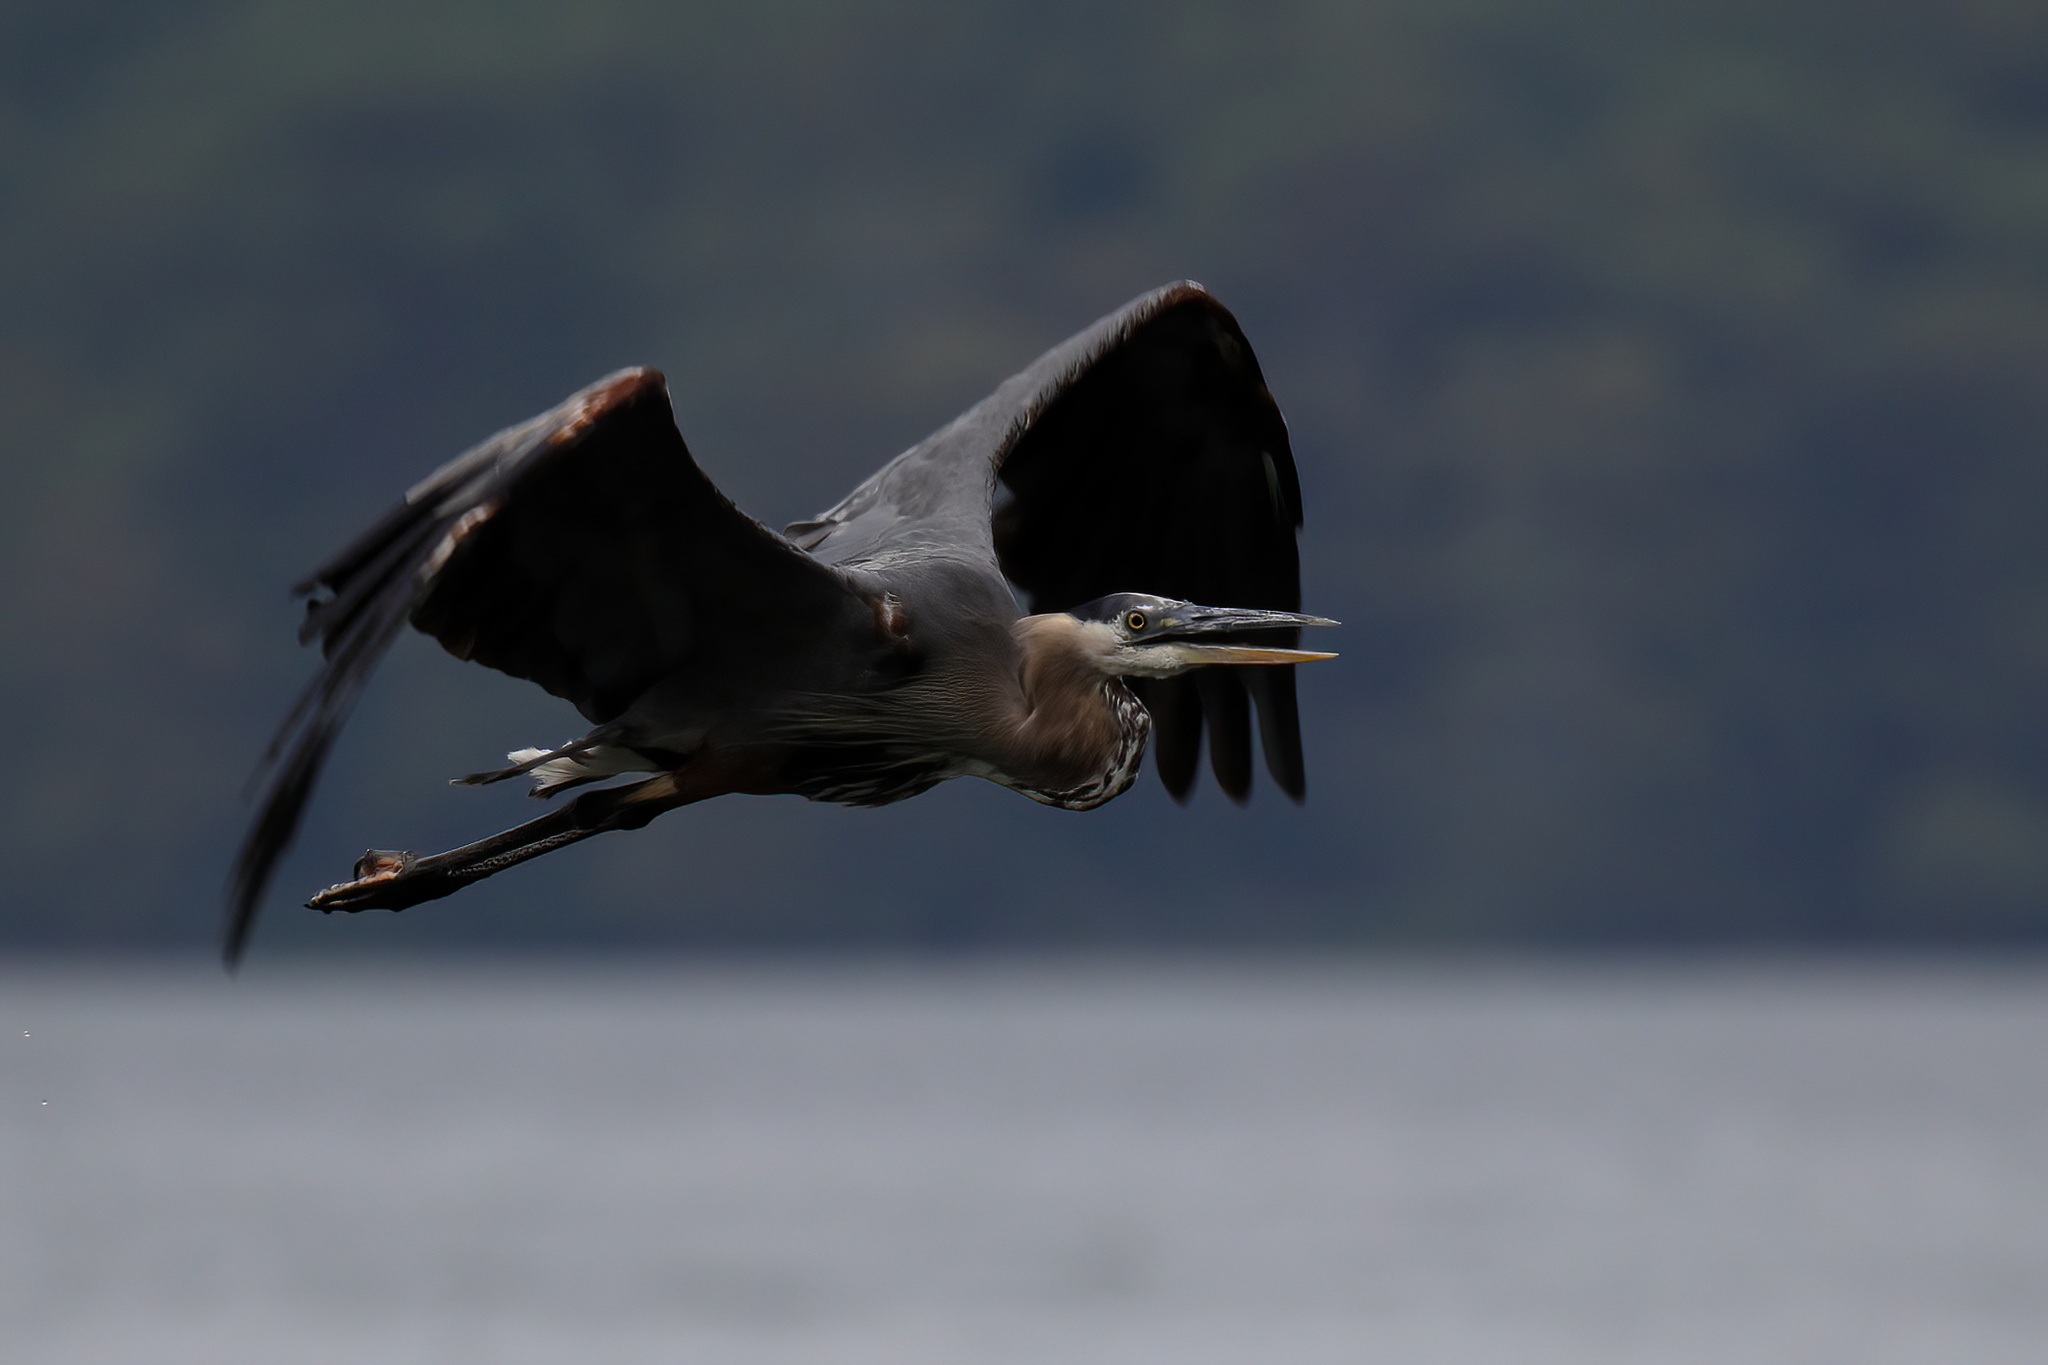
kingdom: Animalia
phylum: Chordata
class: Aves
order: Pelecaniformes
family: Ardeidae
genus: Ardea
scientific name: Ardea herodias
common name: Great blue heron
